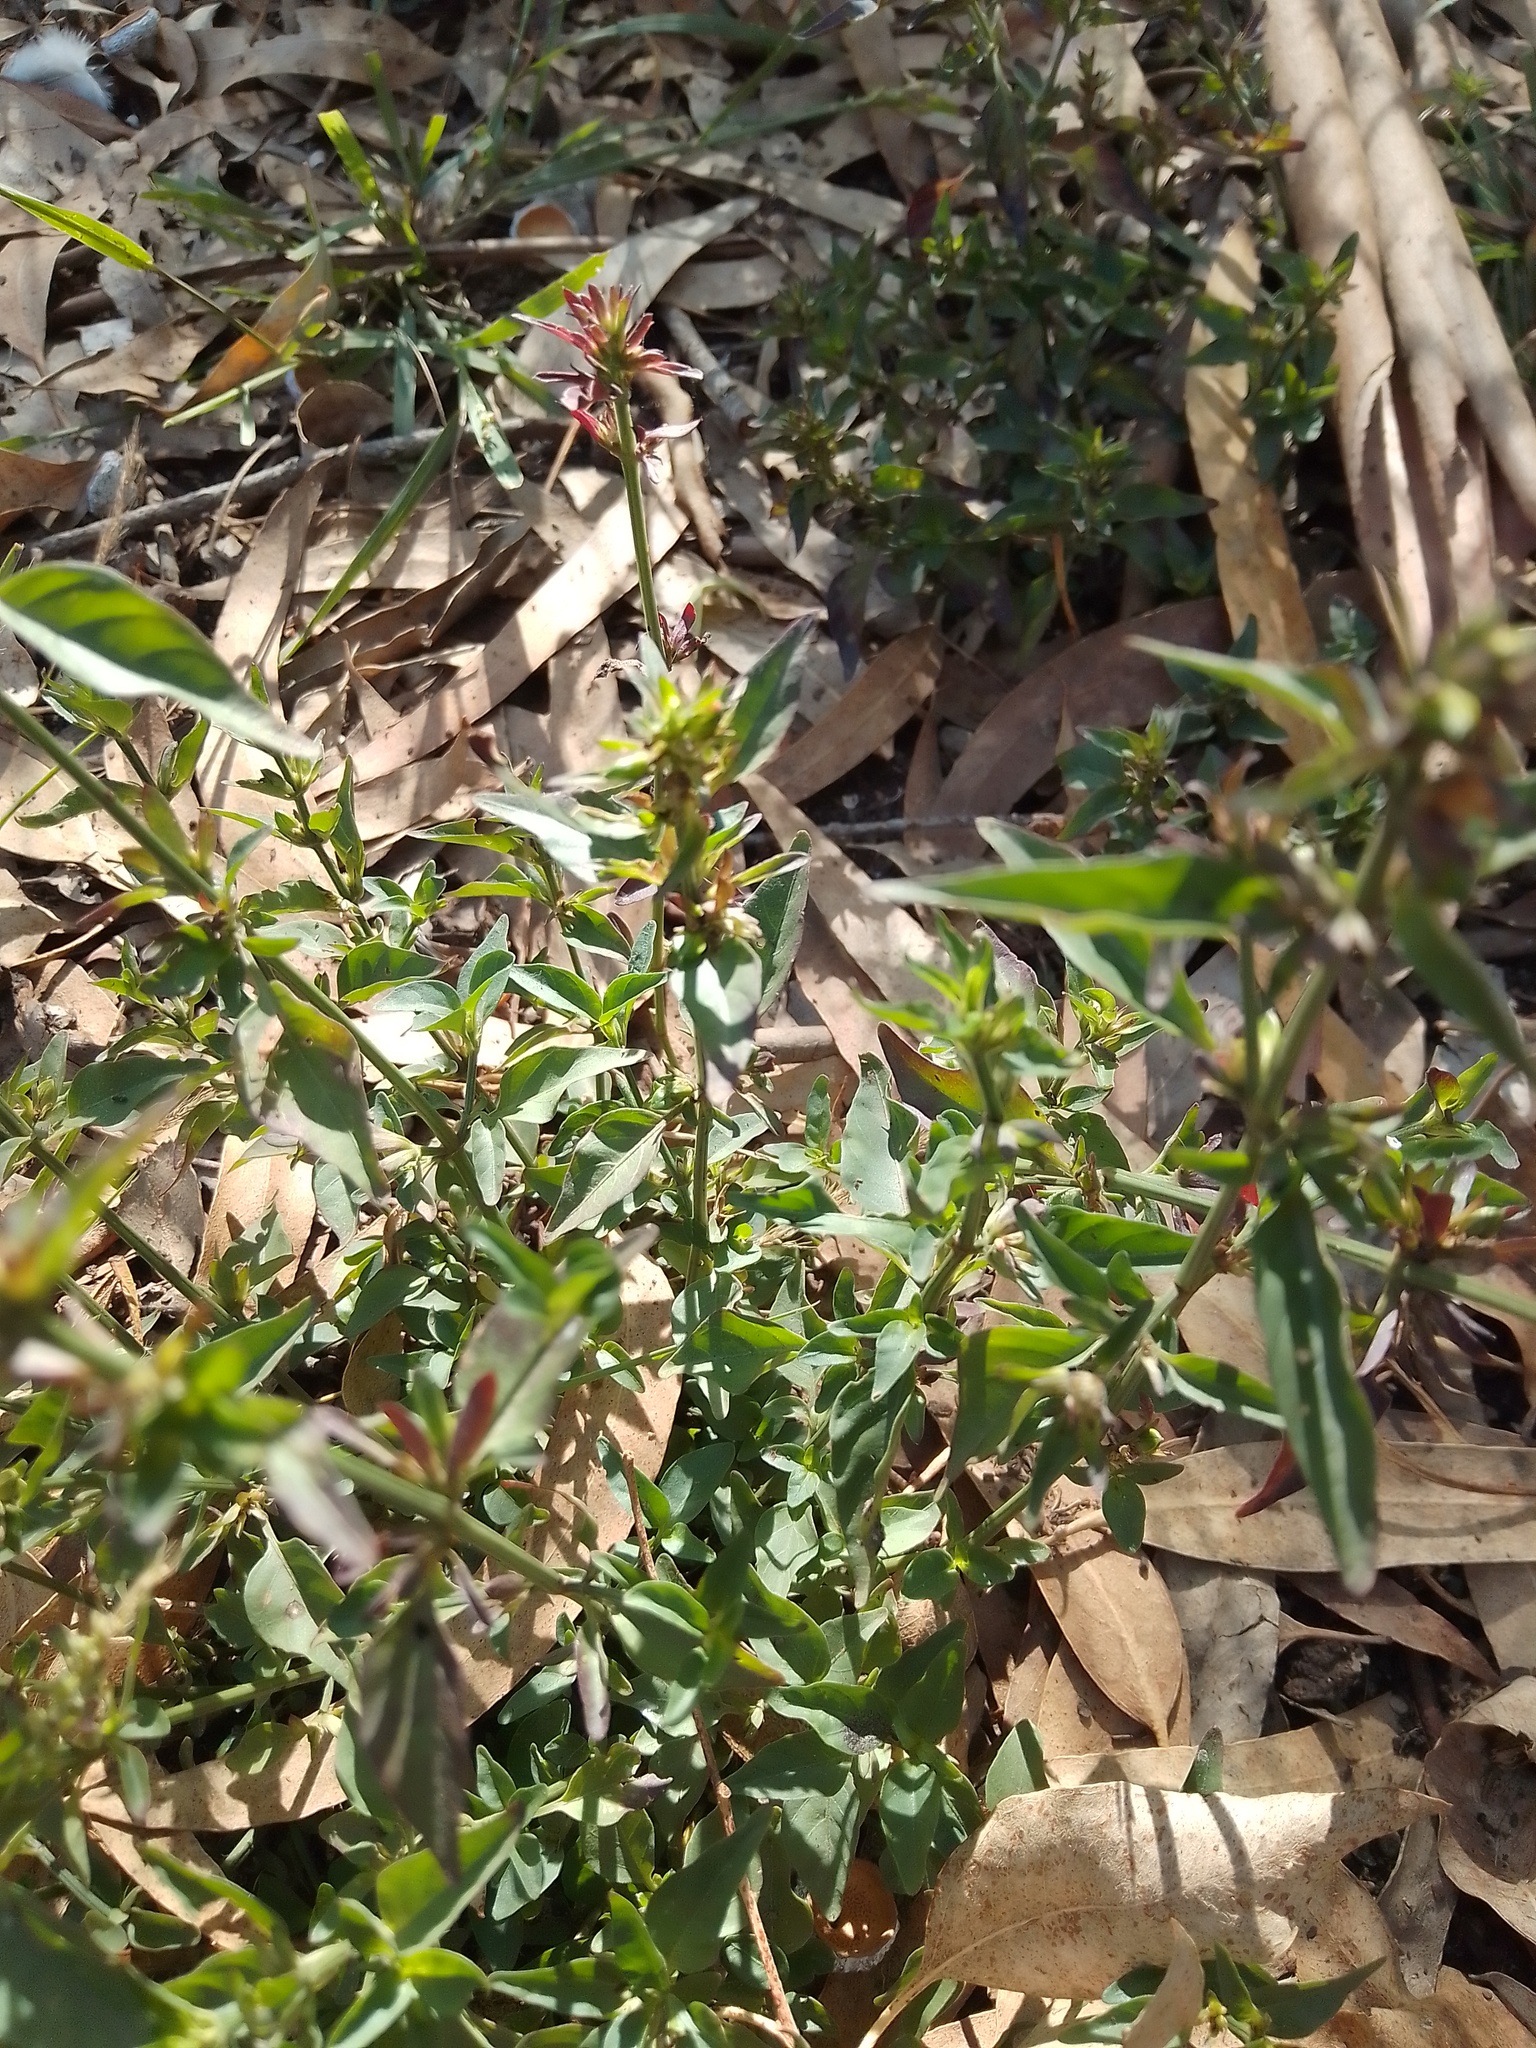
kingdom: Plantae
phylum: Tracheophyta
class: Magnoliopsida
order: Lamiales
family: Acanthaceae
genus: Dicliptera
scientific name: Dicliptera squarrosa
